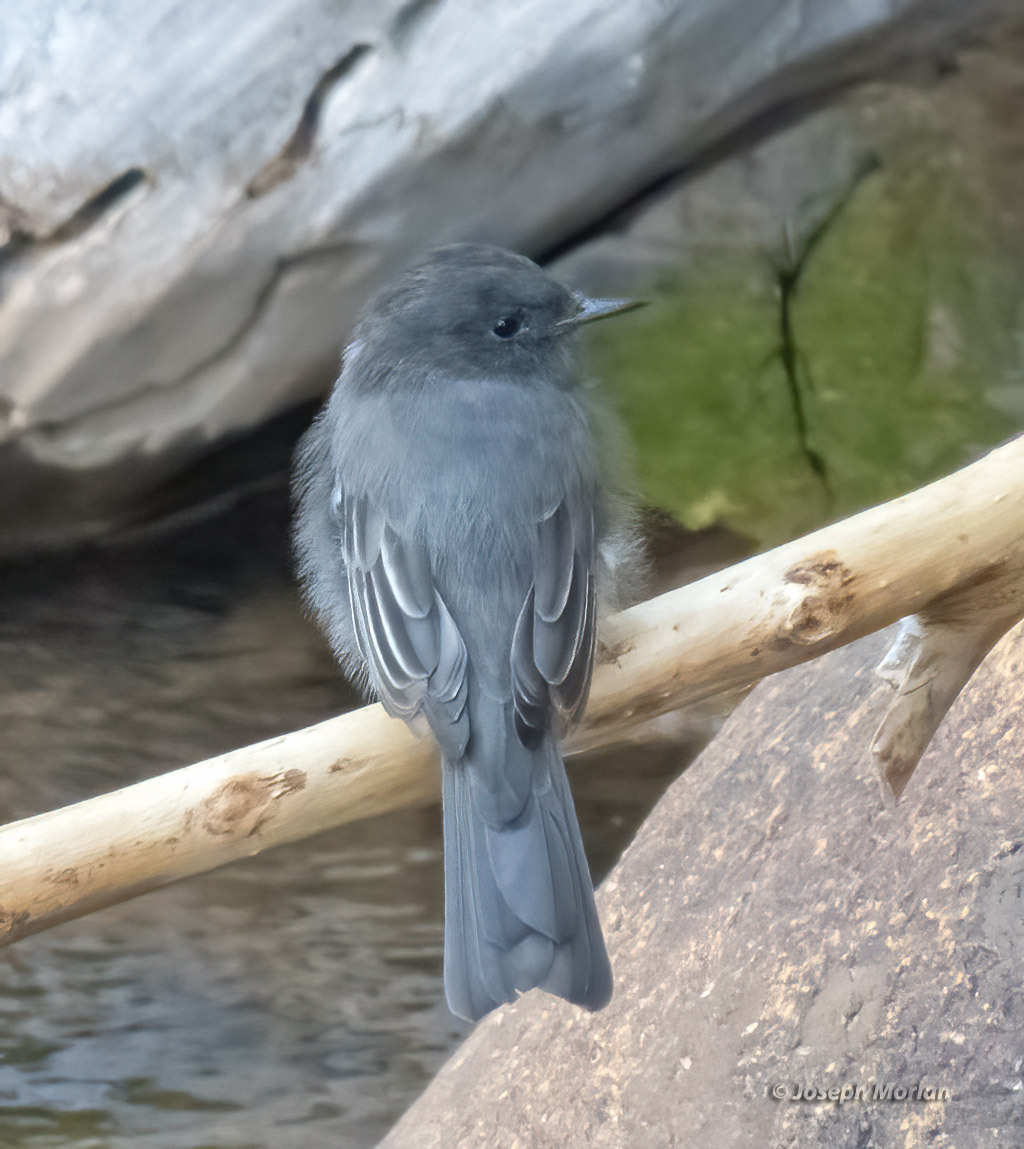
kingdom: Animalia
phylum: Chordata
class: Aves
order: Passeriformes
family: Tyrannidae
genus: Sayornis
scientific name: Sayornis nigricans
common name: Black phoebe
